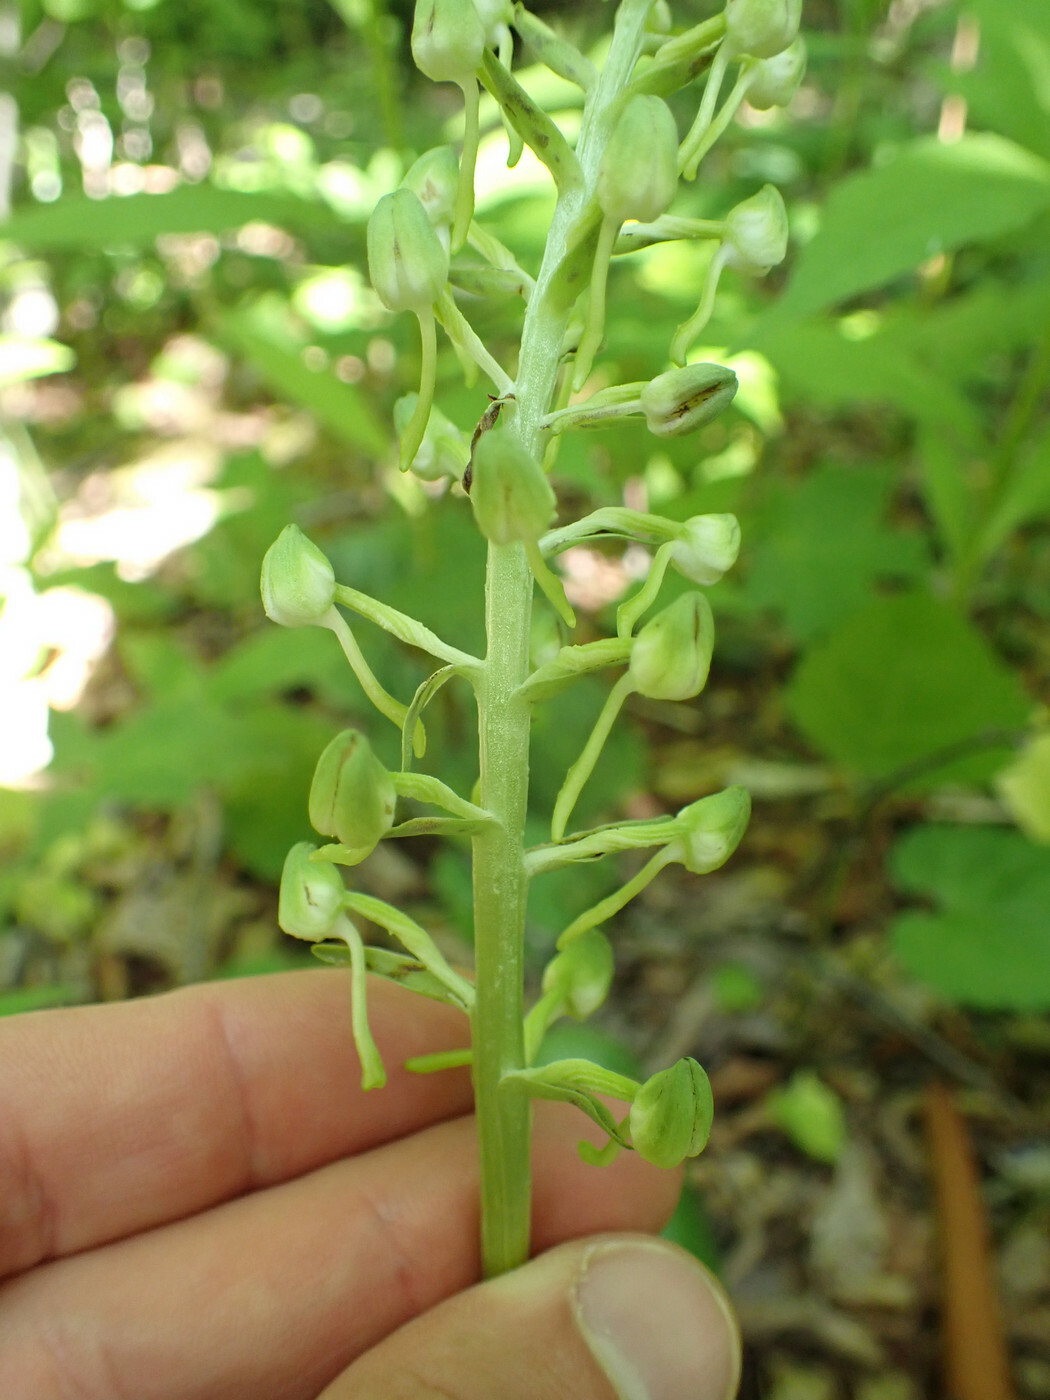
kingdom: Plantae
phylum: Tracheophyta
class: Liliopsida
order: Asparagales
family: Orchidaceae
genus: Platanthera
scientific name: Platanthera orbiculata
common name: Large round-leaved orchid
